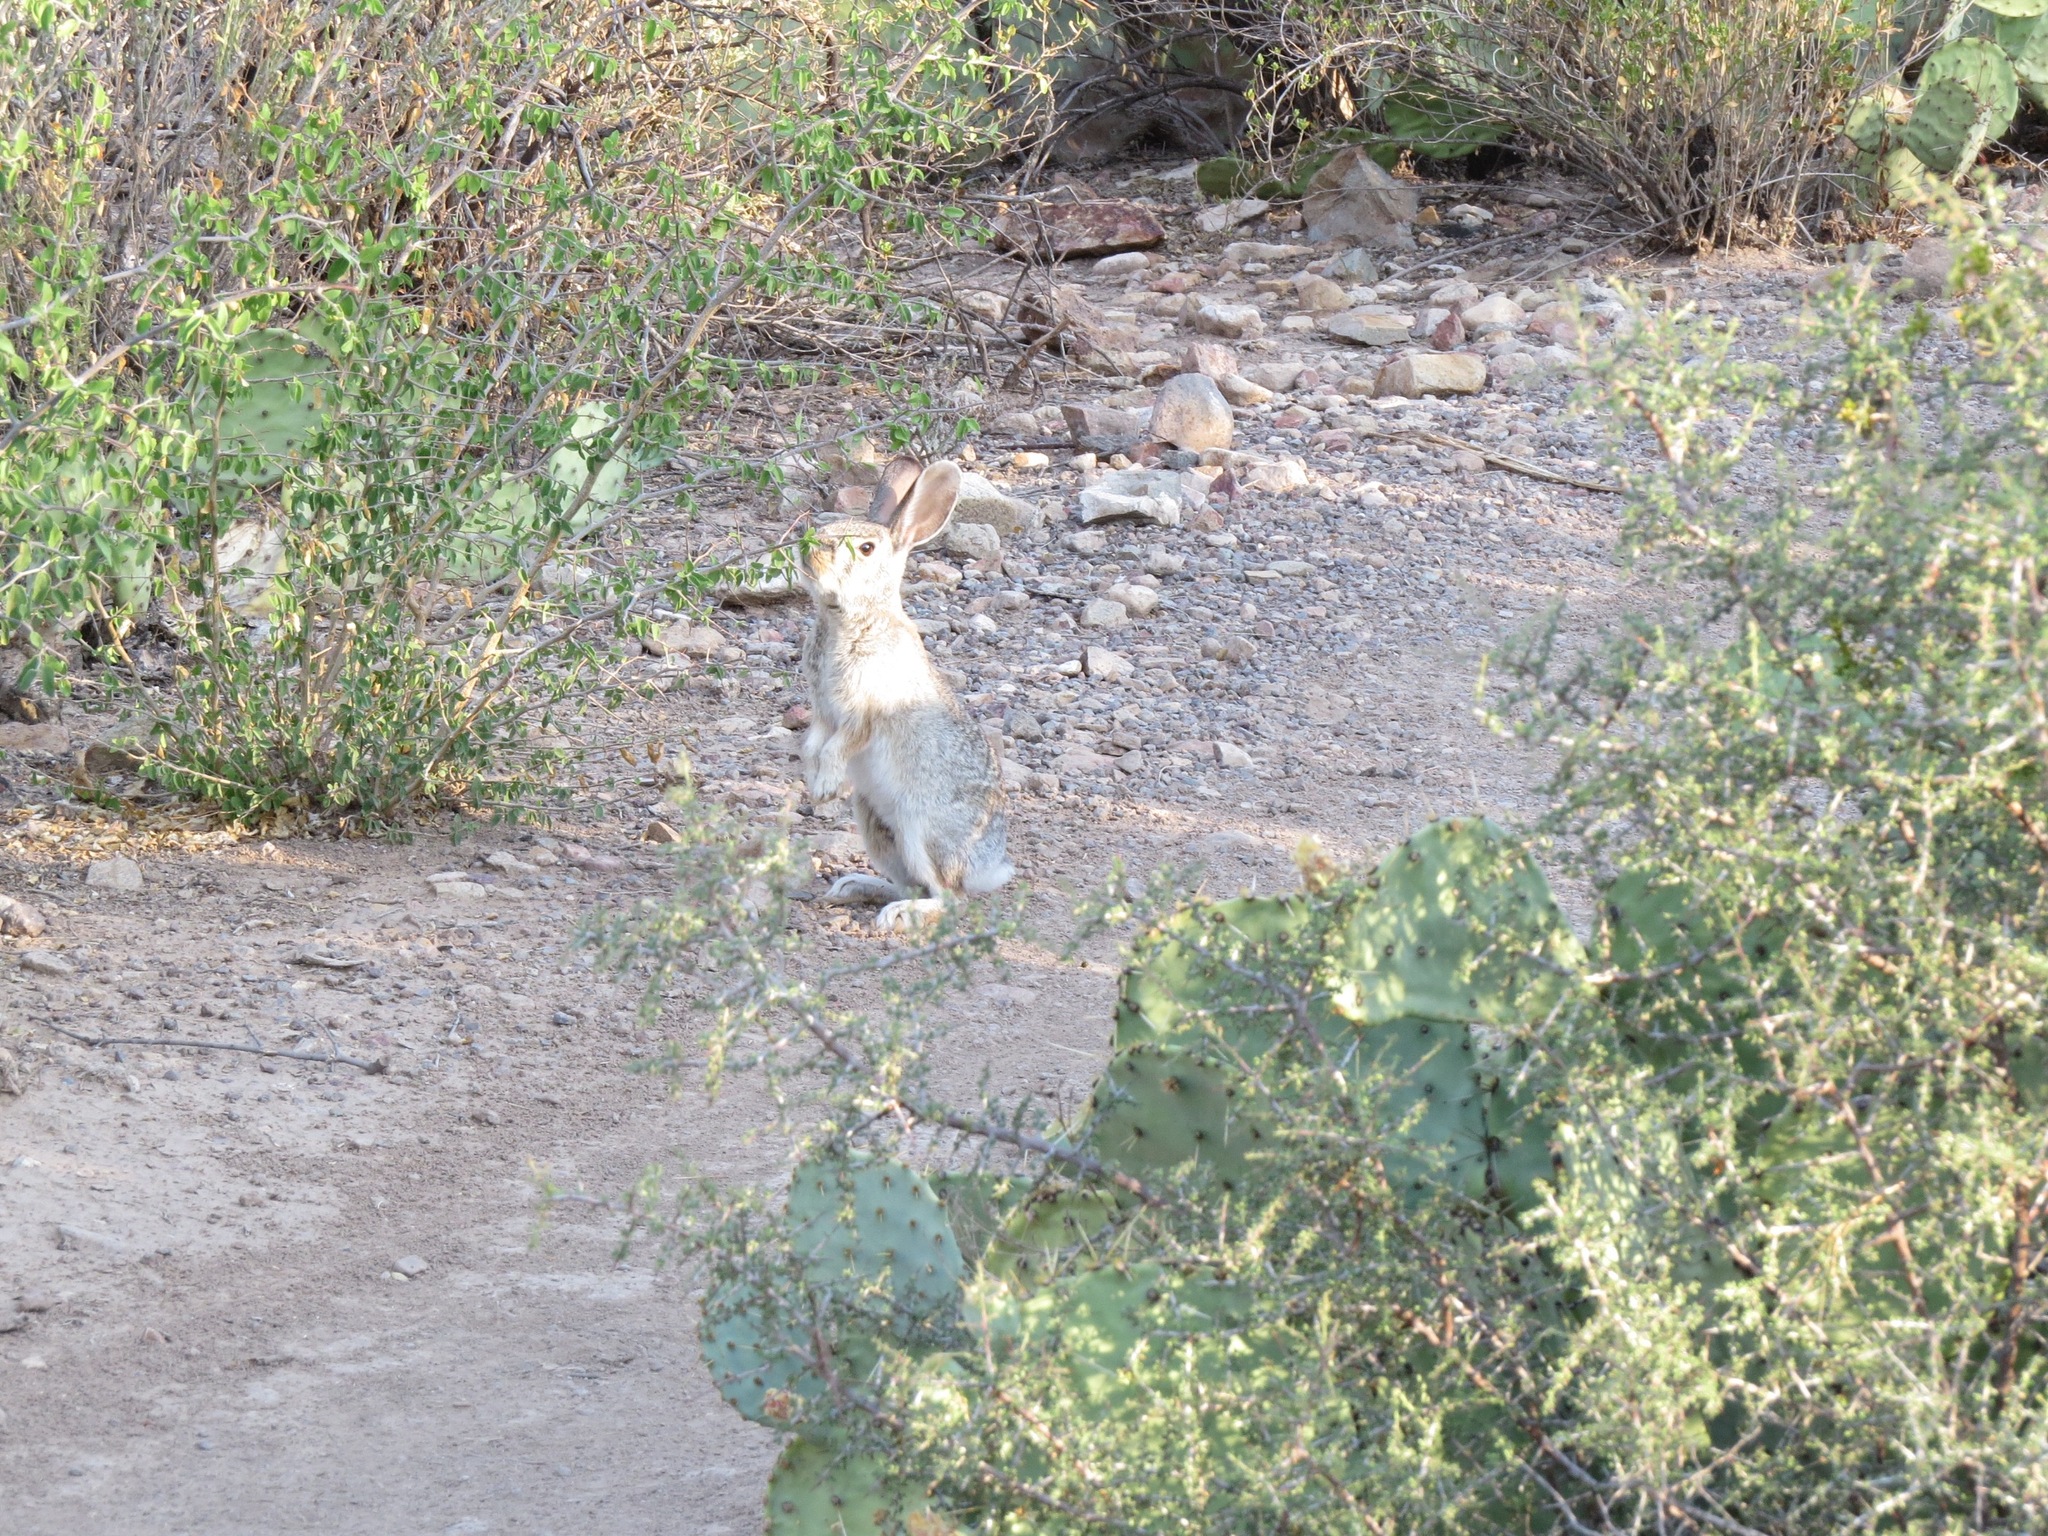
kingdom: Animalia
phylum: Chordata
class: Mammalia
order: Lagomorpha
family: Leporidae
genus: Sylvilagus
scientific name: Sylvilagus audubonii
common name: Desert cottontail
